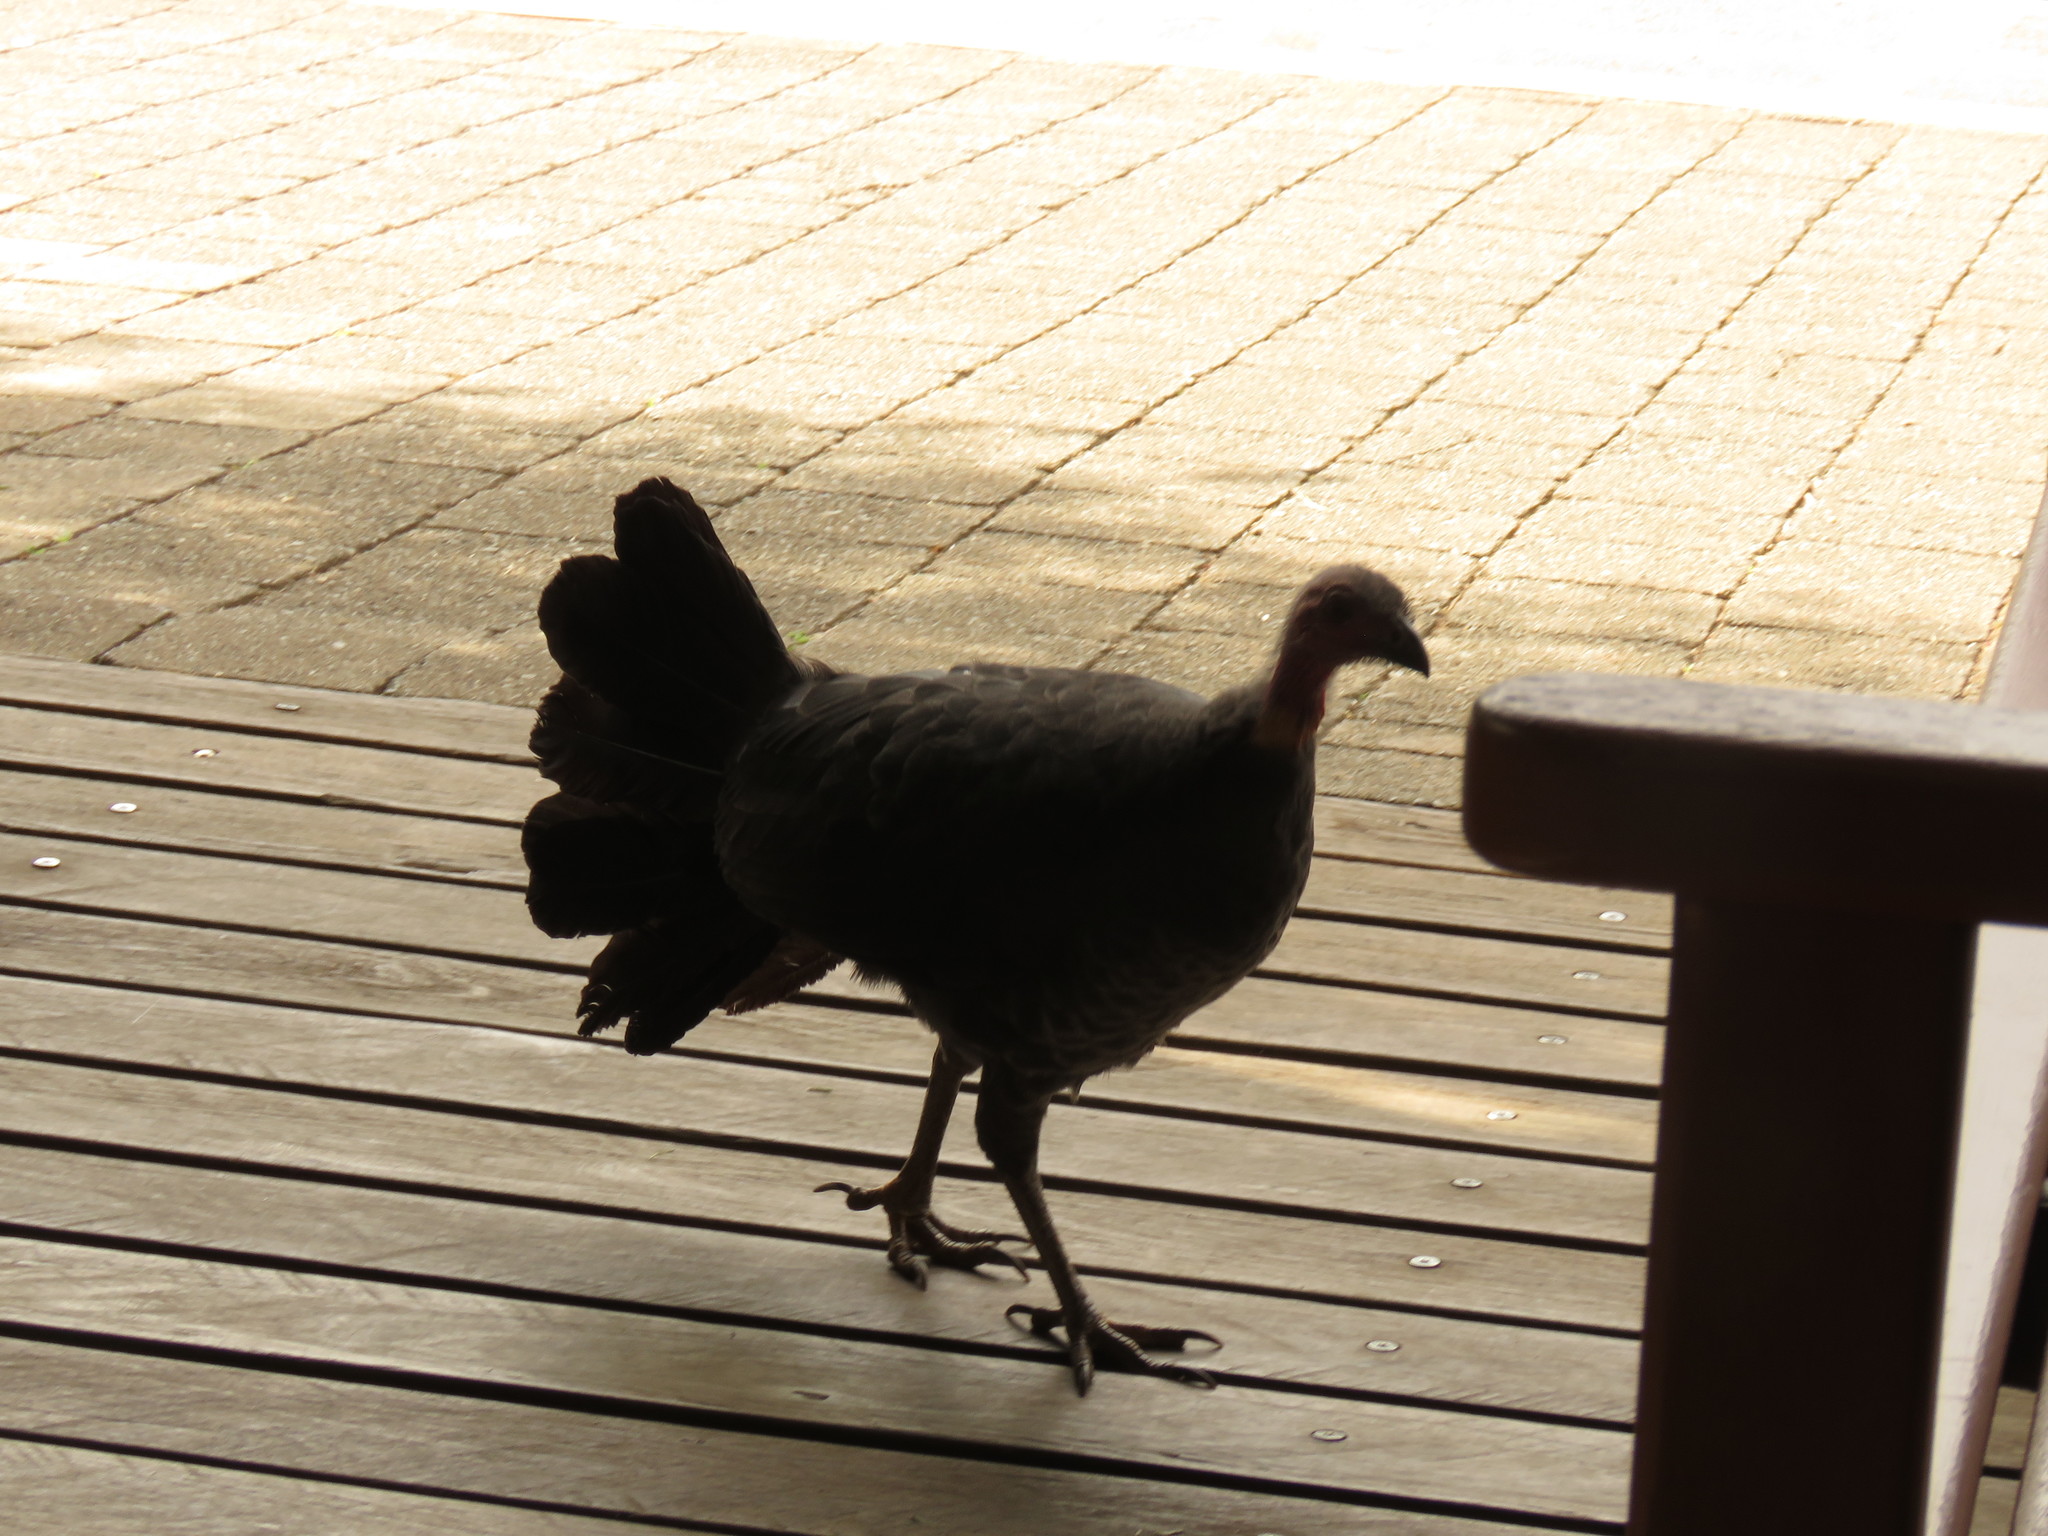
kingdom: Animalia
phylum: Chordata
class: Aves
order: Galliformes
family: Megapodiidae
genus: Alectura
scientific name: Alectura lathami
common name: Australian brushturkey
